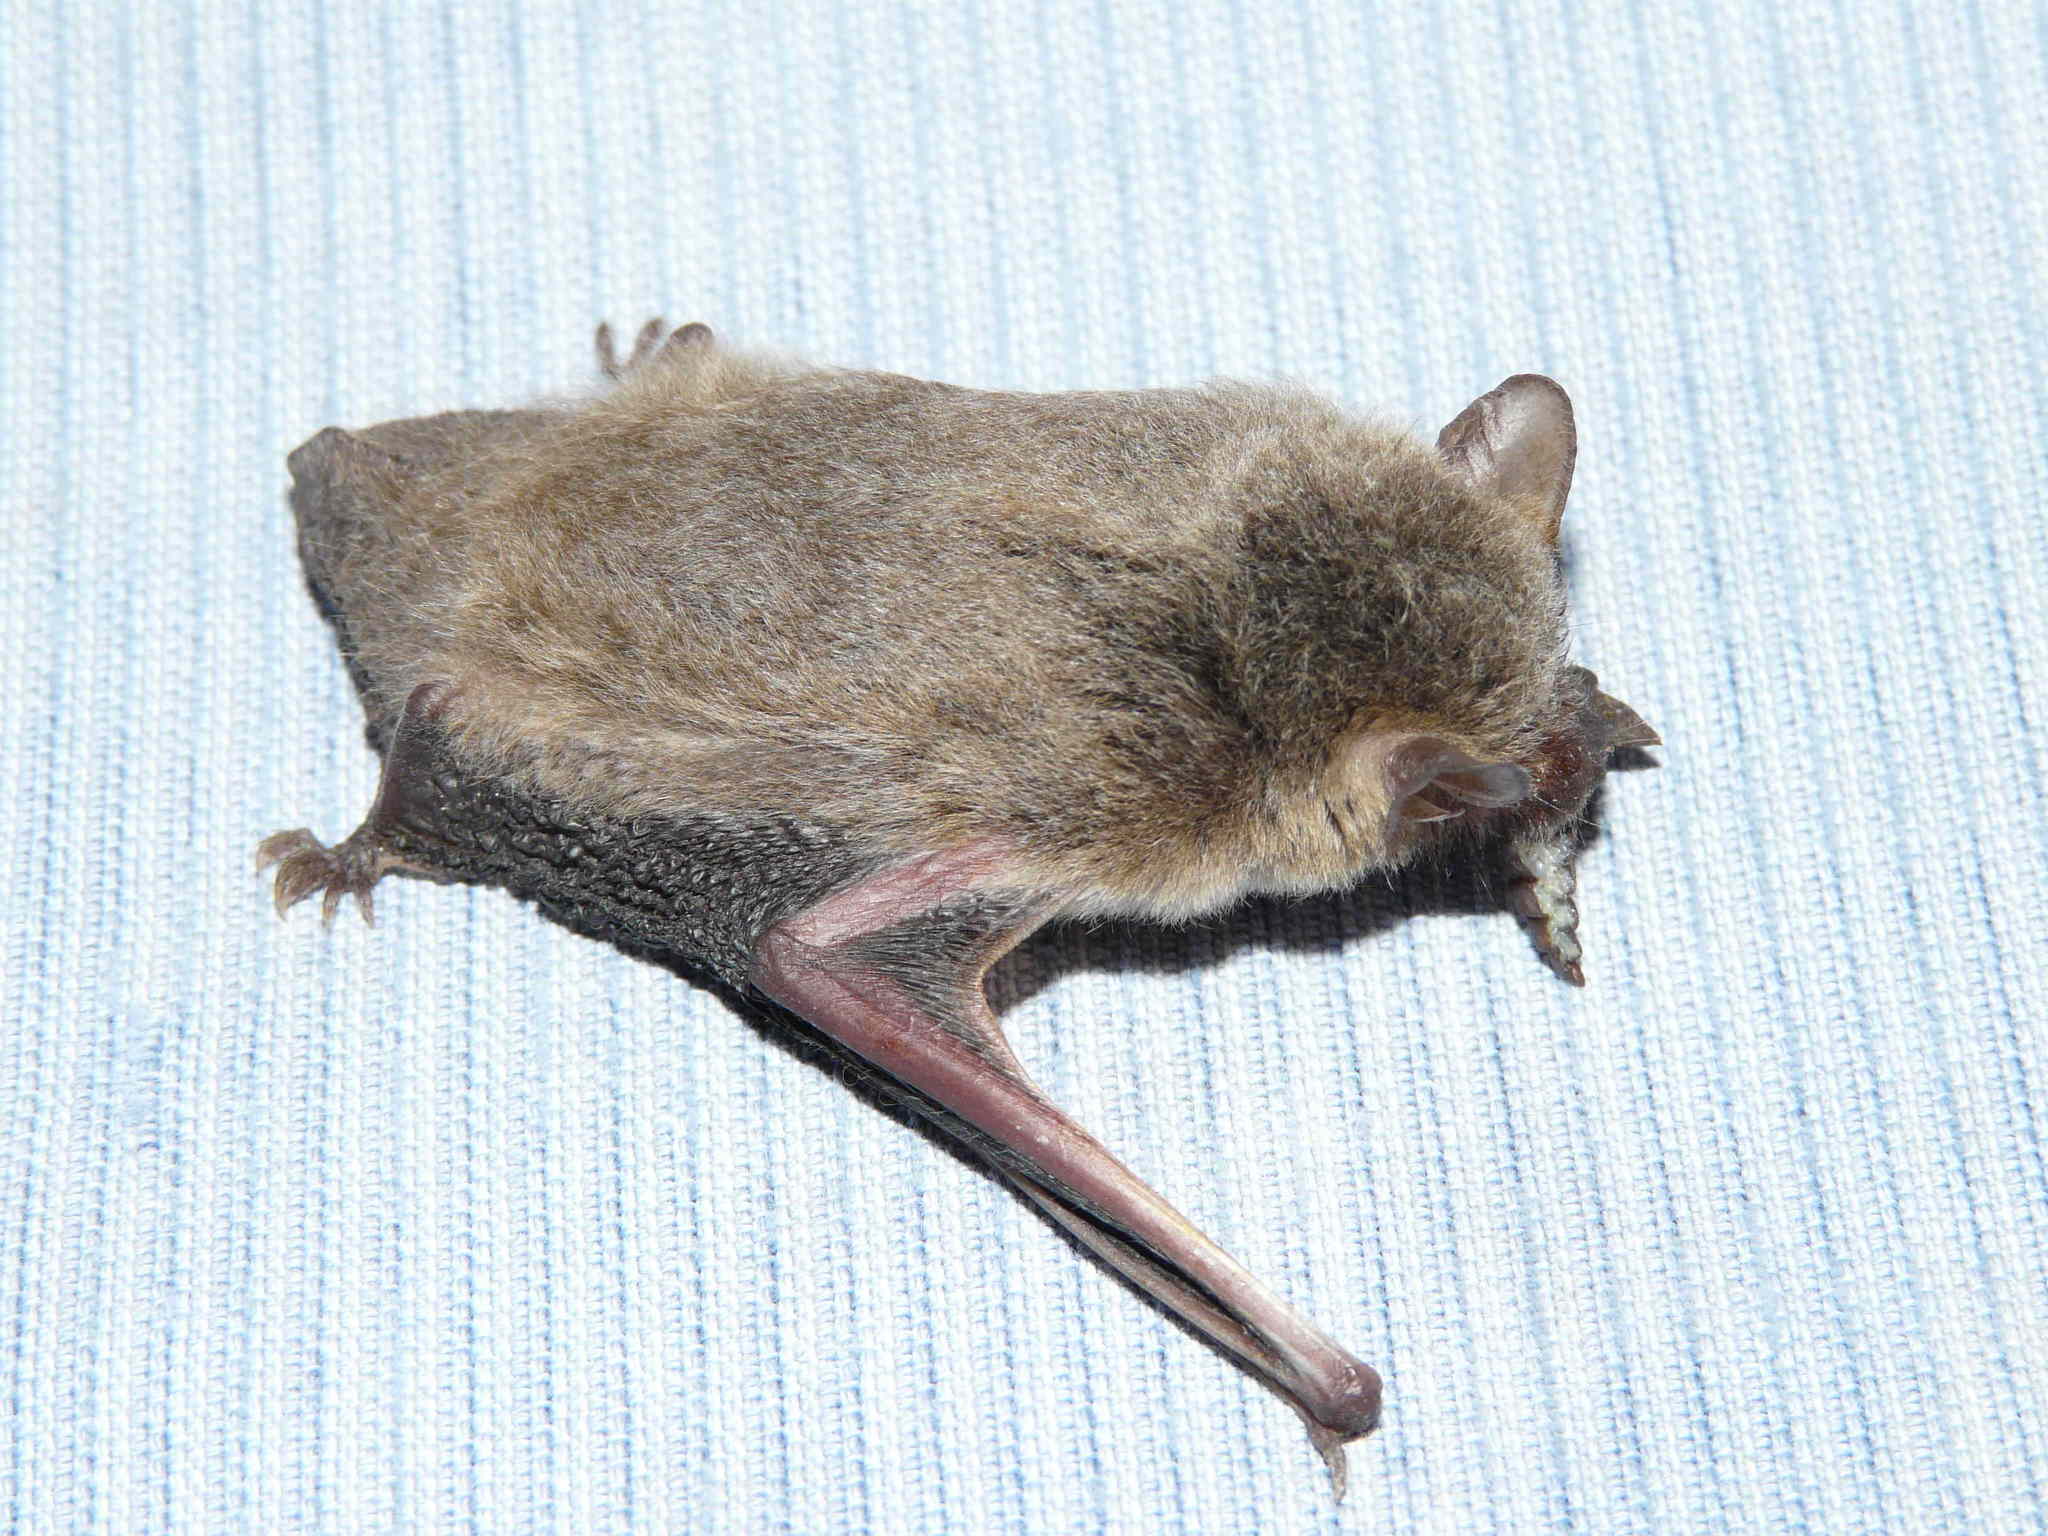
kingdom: Animalia
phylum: Chordata
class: Mammalia
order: Chiroptera
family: Vespertilionidae
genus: Laephotis
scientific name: Laephotis capensis
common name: Cape serotine
